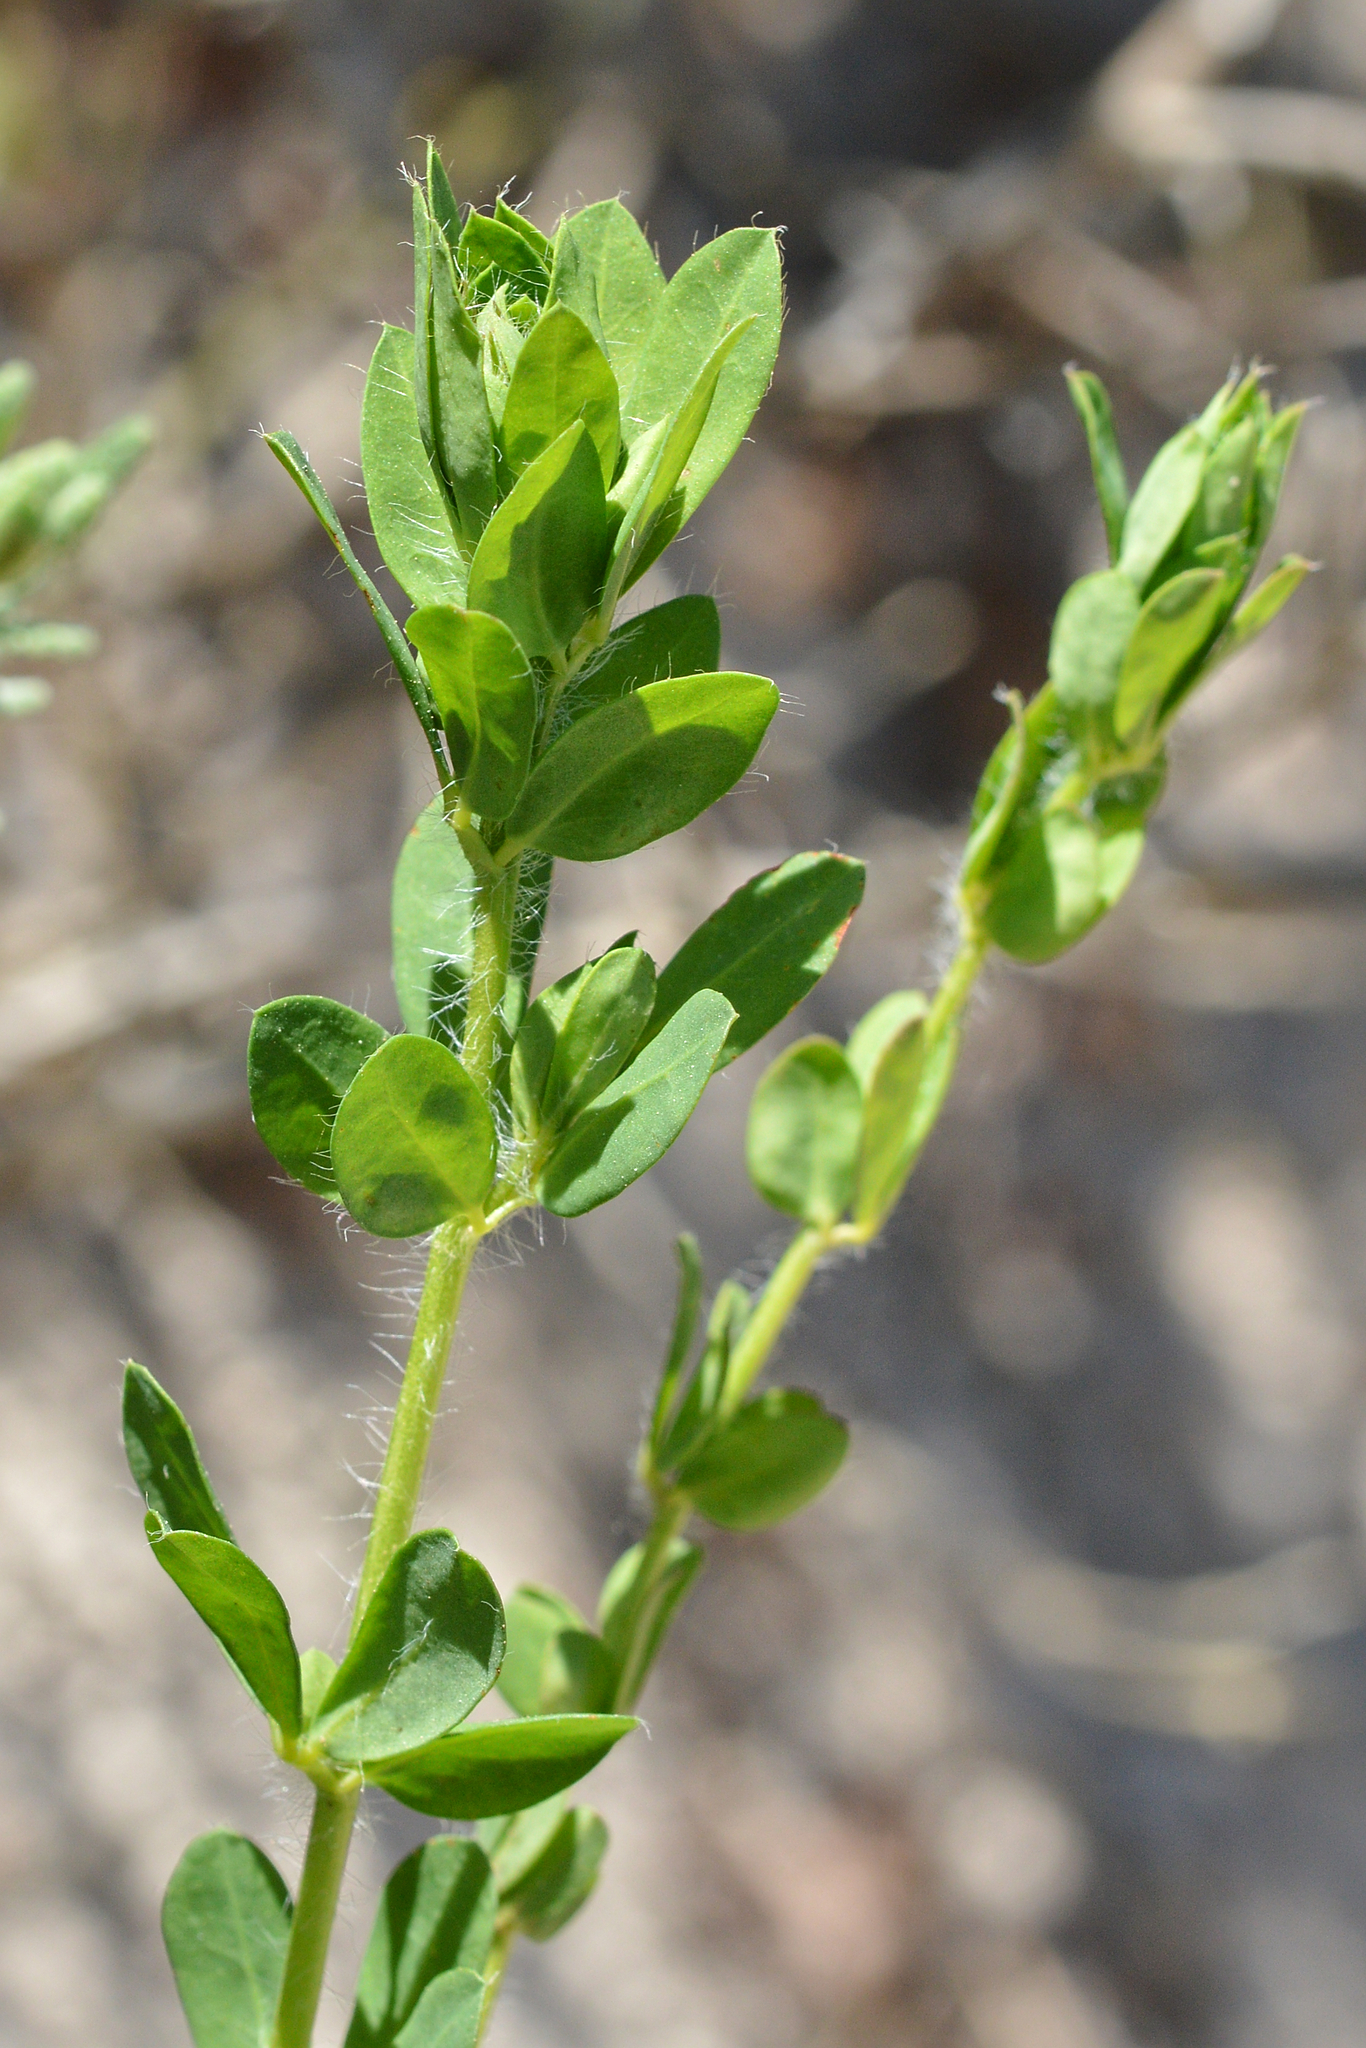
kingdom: Plantae
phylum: Tracheophyta
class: Magnoliopsida
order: Fabales
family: Fabaceae
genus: Lotus
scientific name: Lotus hirsutus
